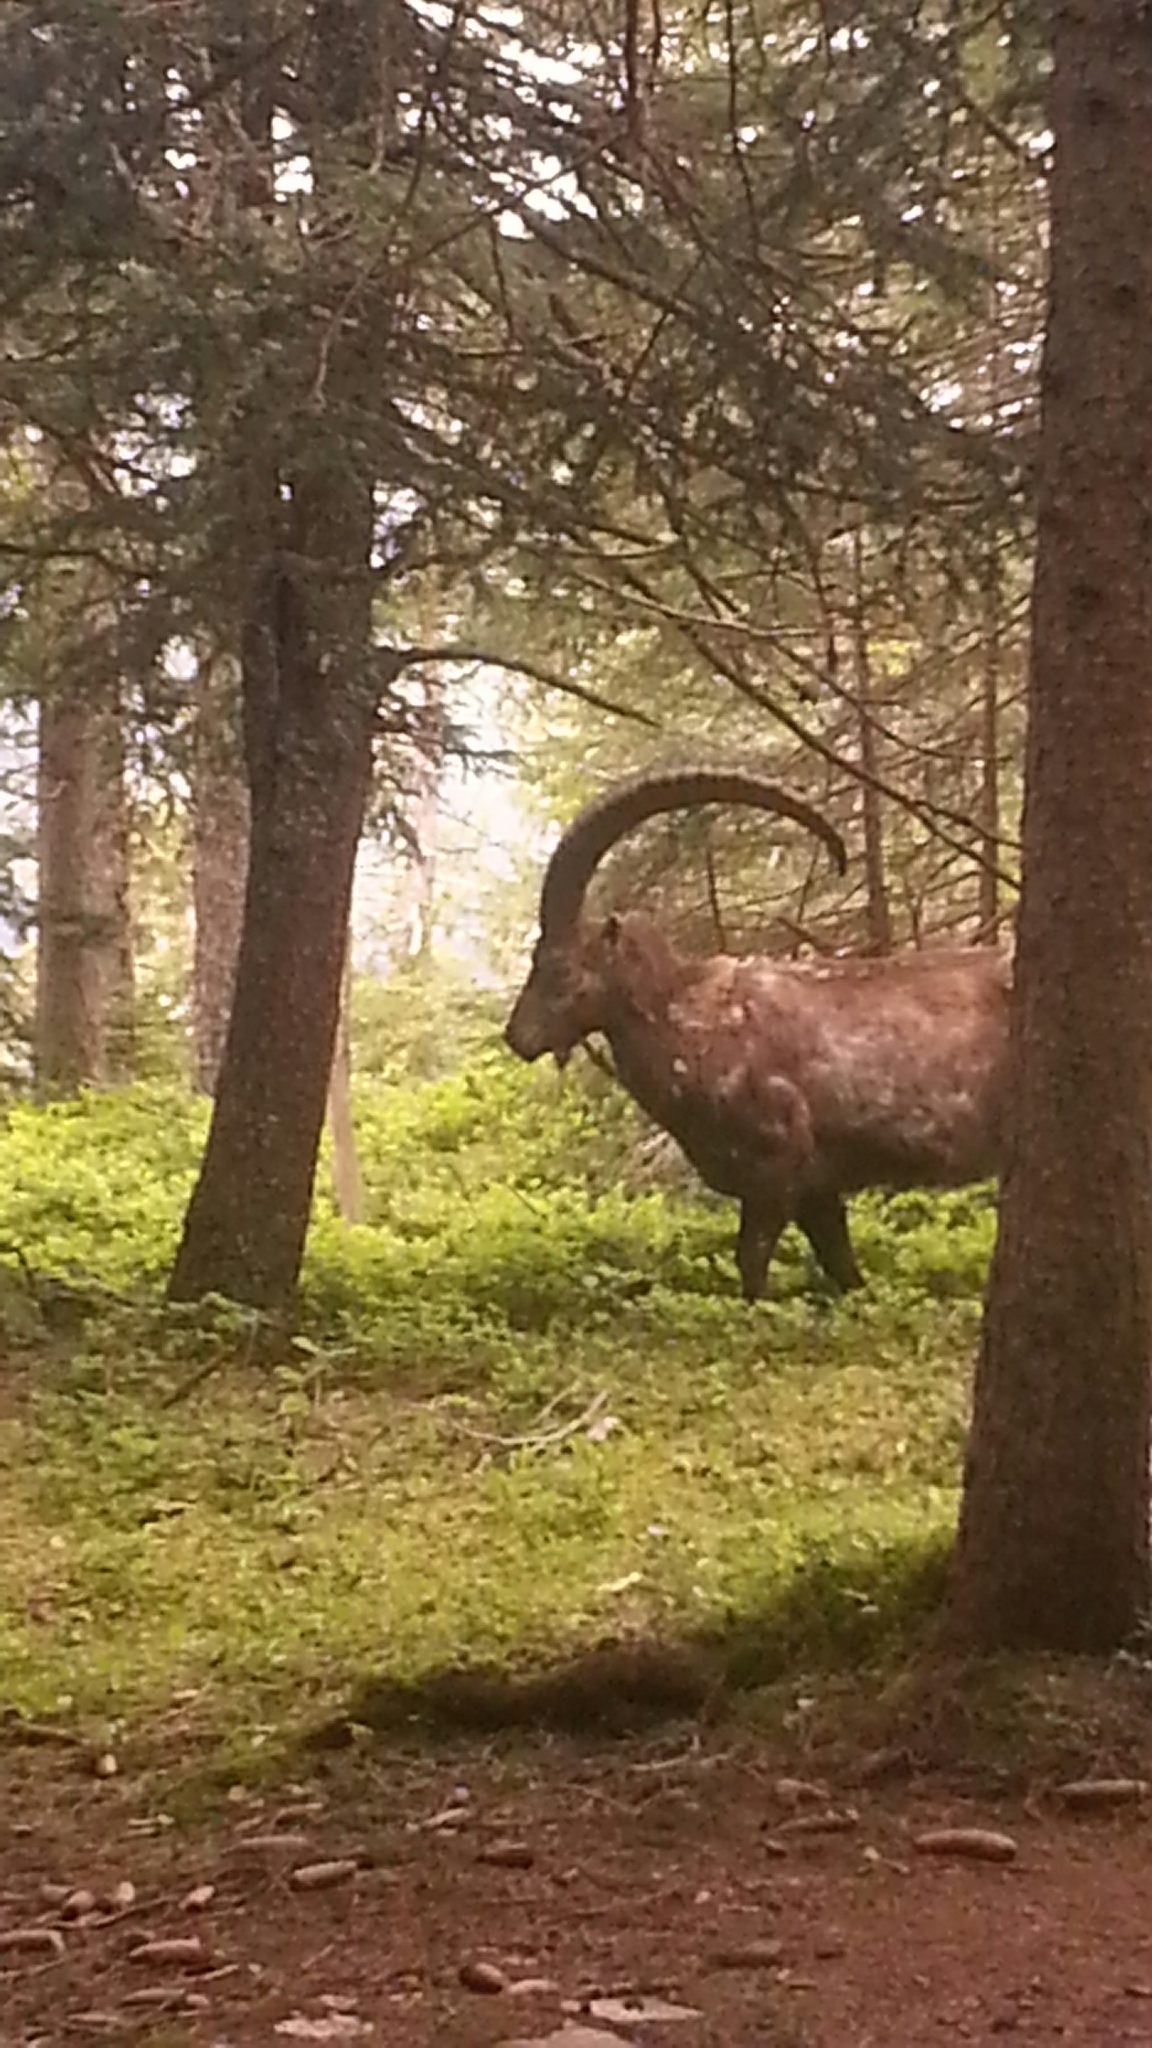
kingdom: Animalia
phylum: Chordata
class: Mammalia
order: Artiodactyla
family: Bovidae
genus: Capra
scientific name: Capra ibex
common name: Alpine ibex
